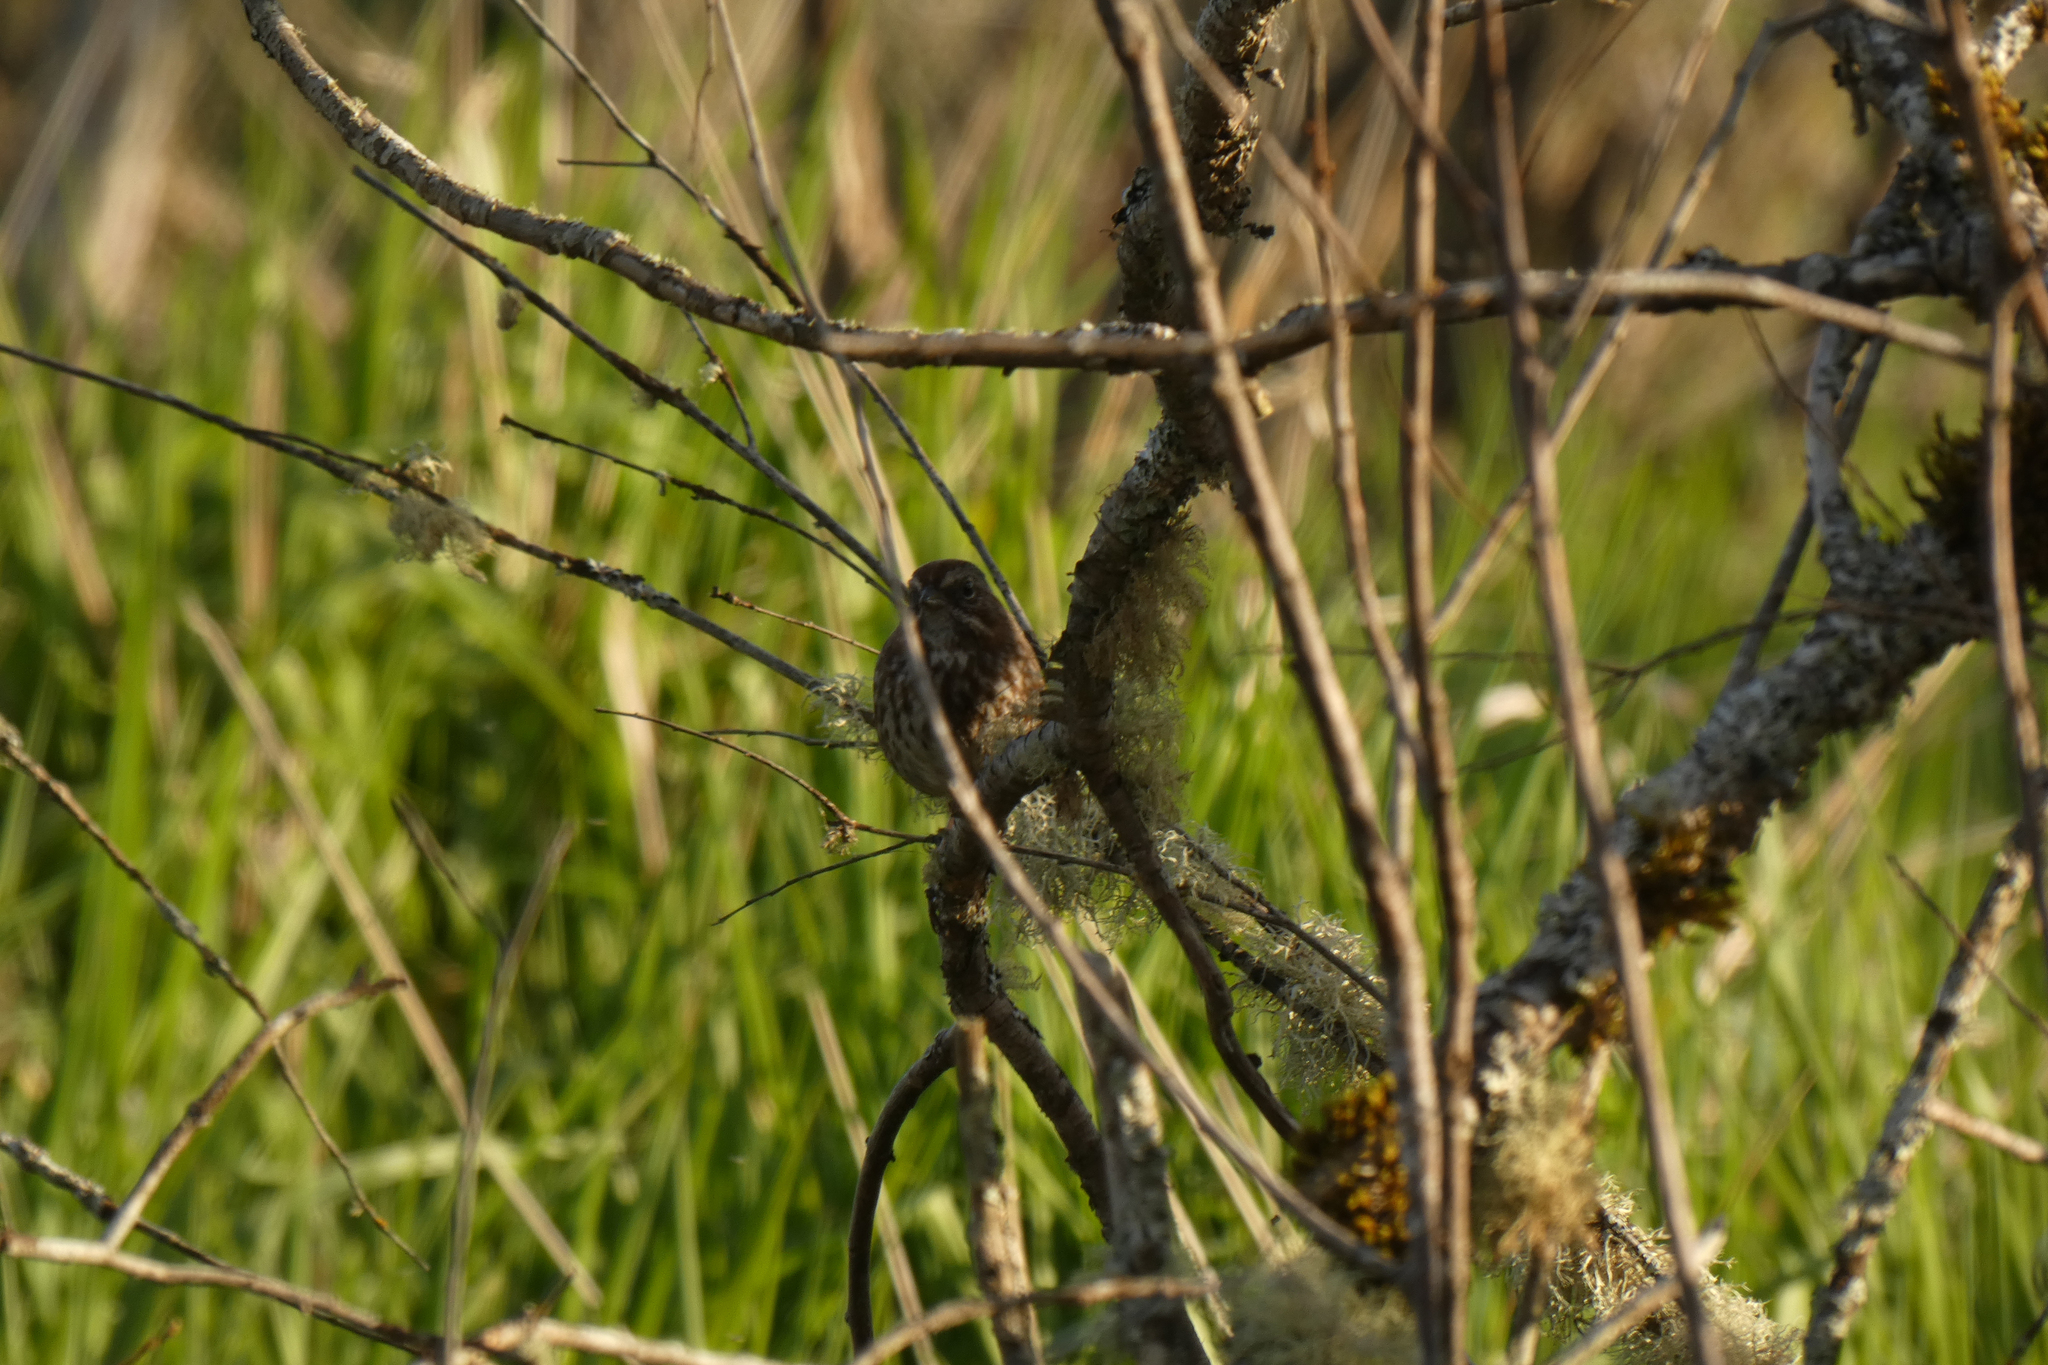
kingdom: Animalia
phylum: Chordata
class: Aves
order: Passeriformes
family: Passerellidae
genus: Melospiza
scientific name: Melospiza melodia
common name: Song sparrow
